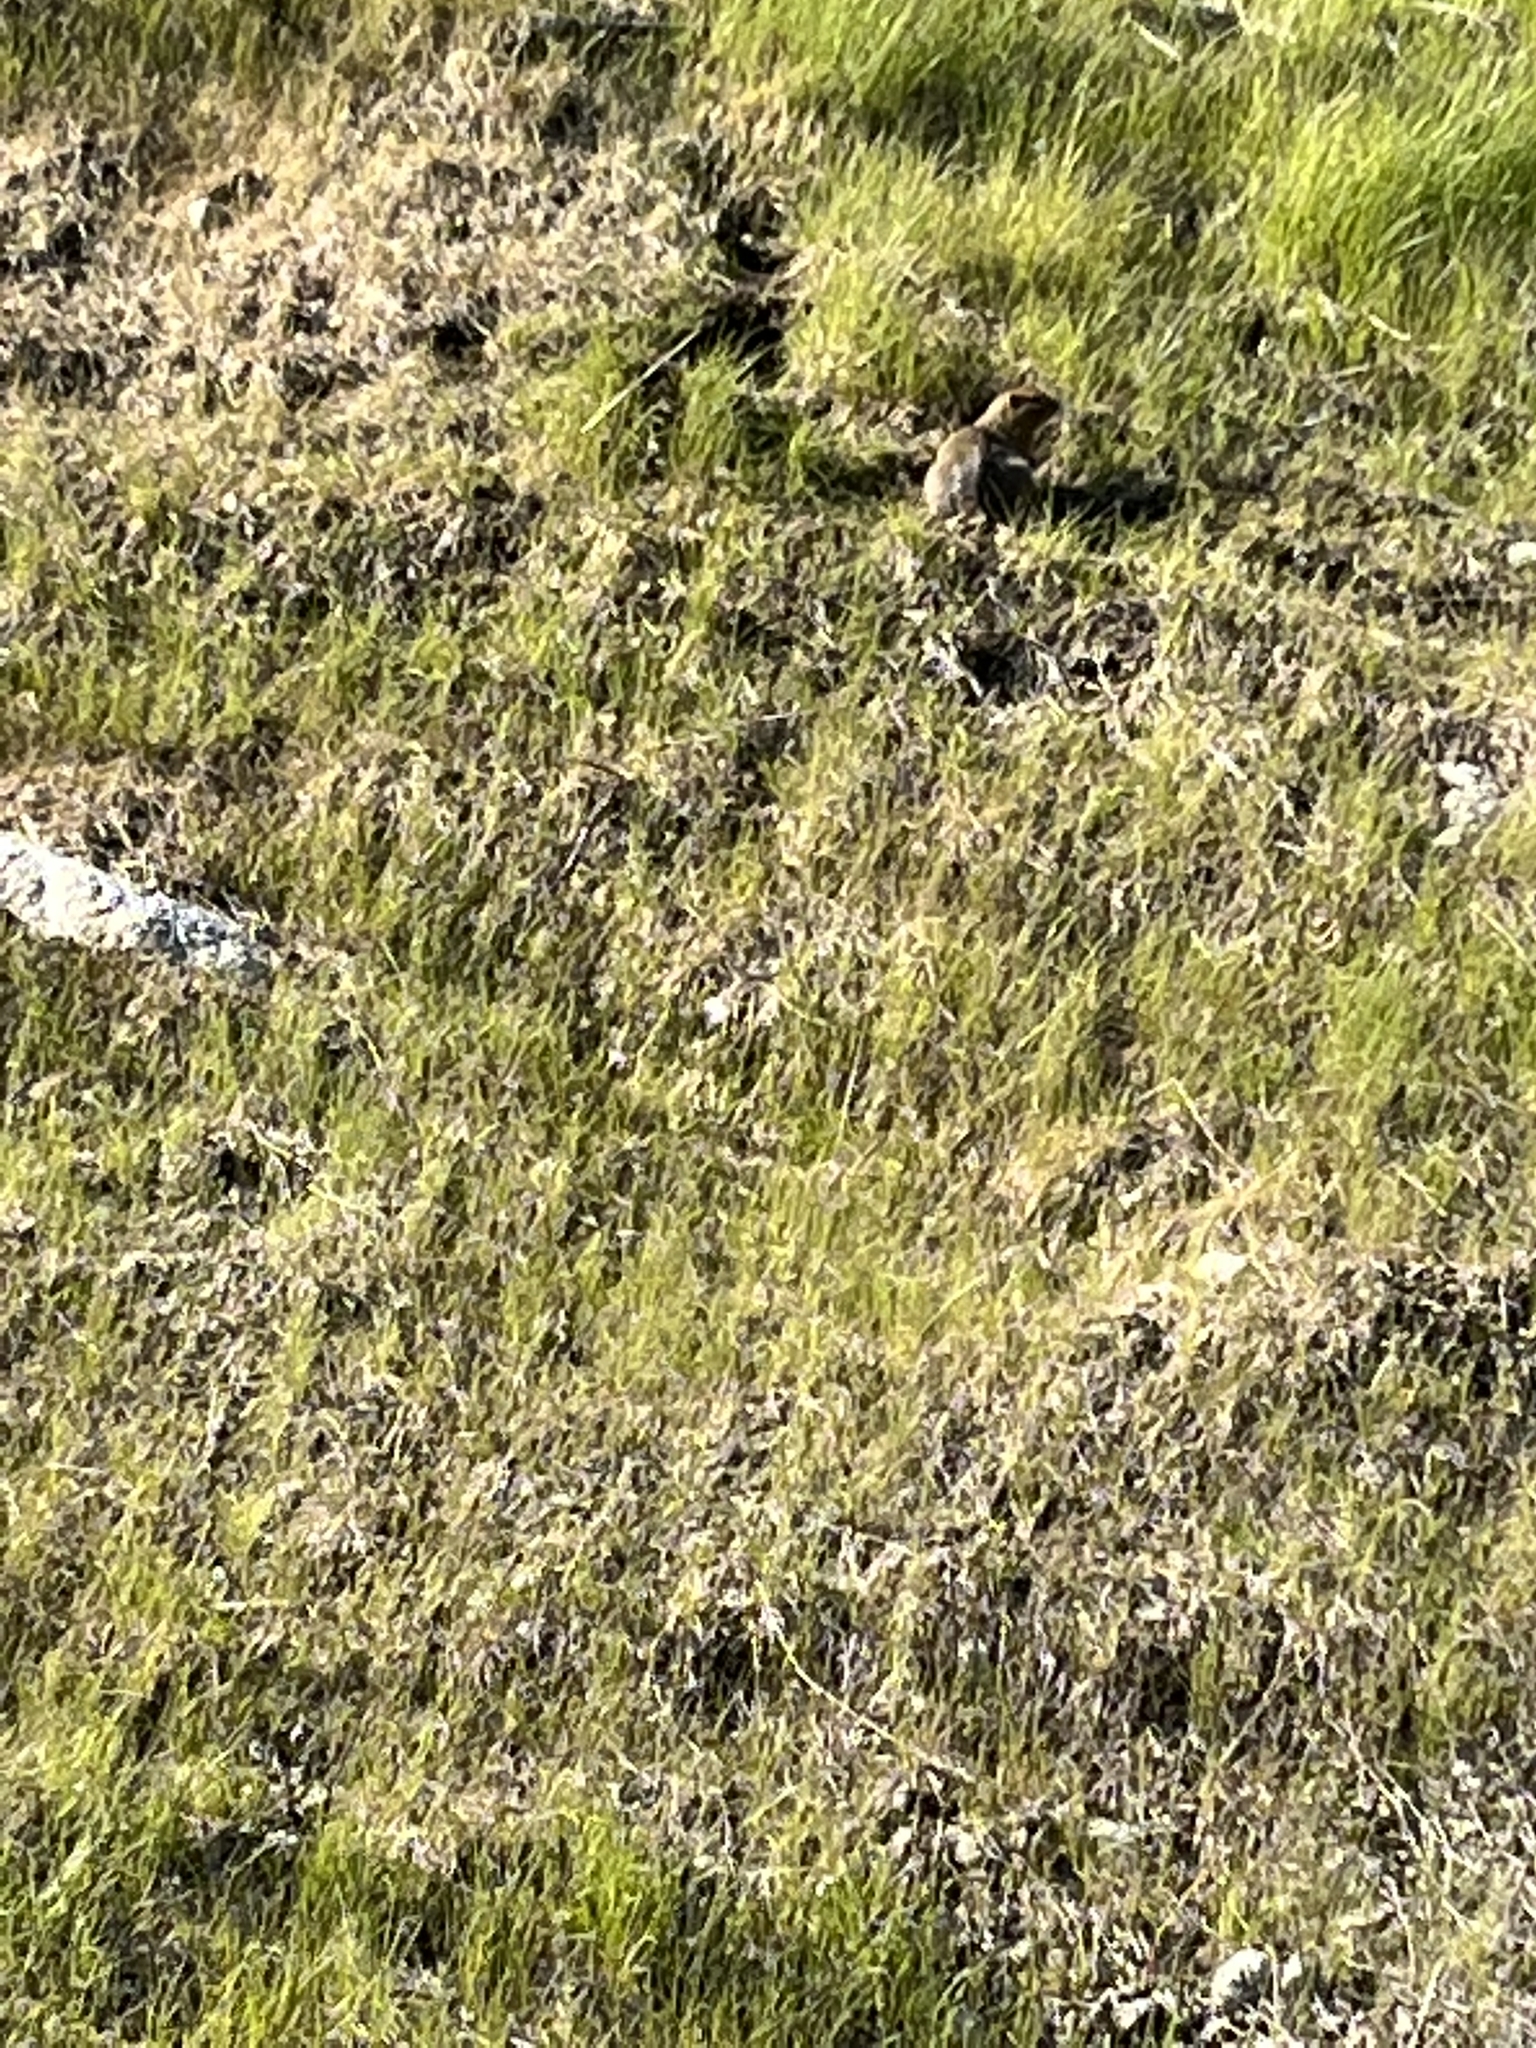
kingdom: Animalia
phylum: Chordata
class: Mammalia
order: Rodentia
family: Sciuridae
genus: Urocitellus
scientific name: Urocitellus parryii
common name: Arctic ground squirrel
